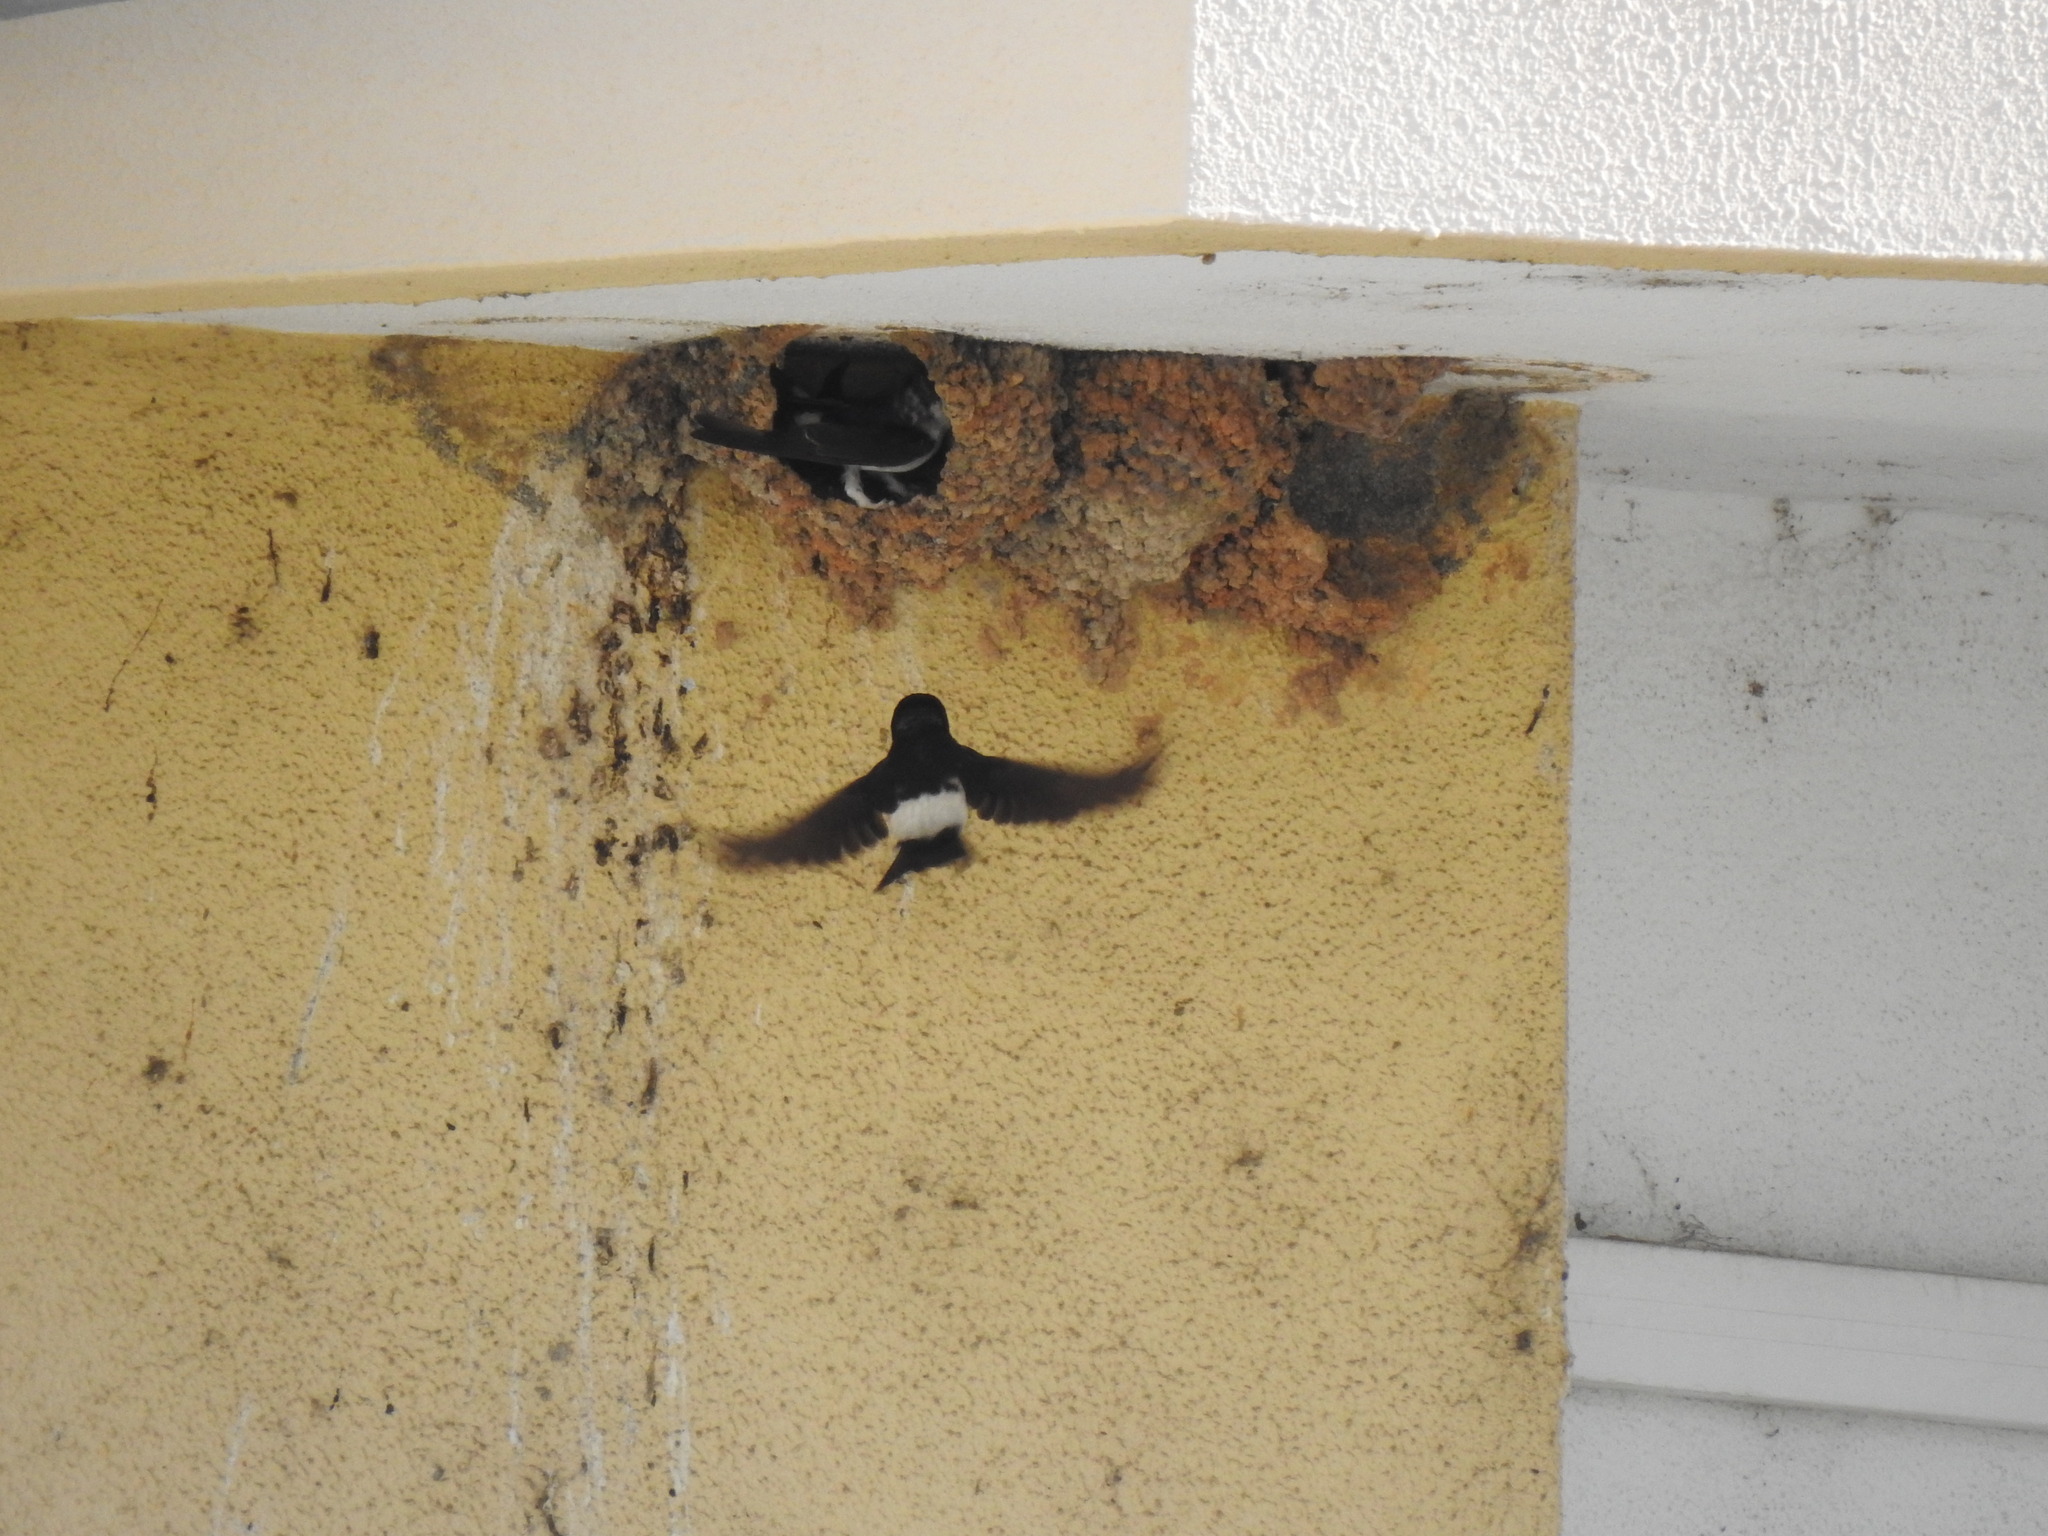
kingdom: Animalia
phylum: Chordata
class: Aves
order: Passeriformes
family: Hirundinidae
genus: Delichon
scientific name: Delichon urbicum
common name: Common house martin
